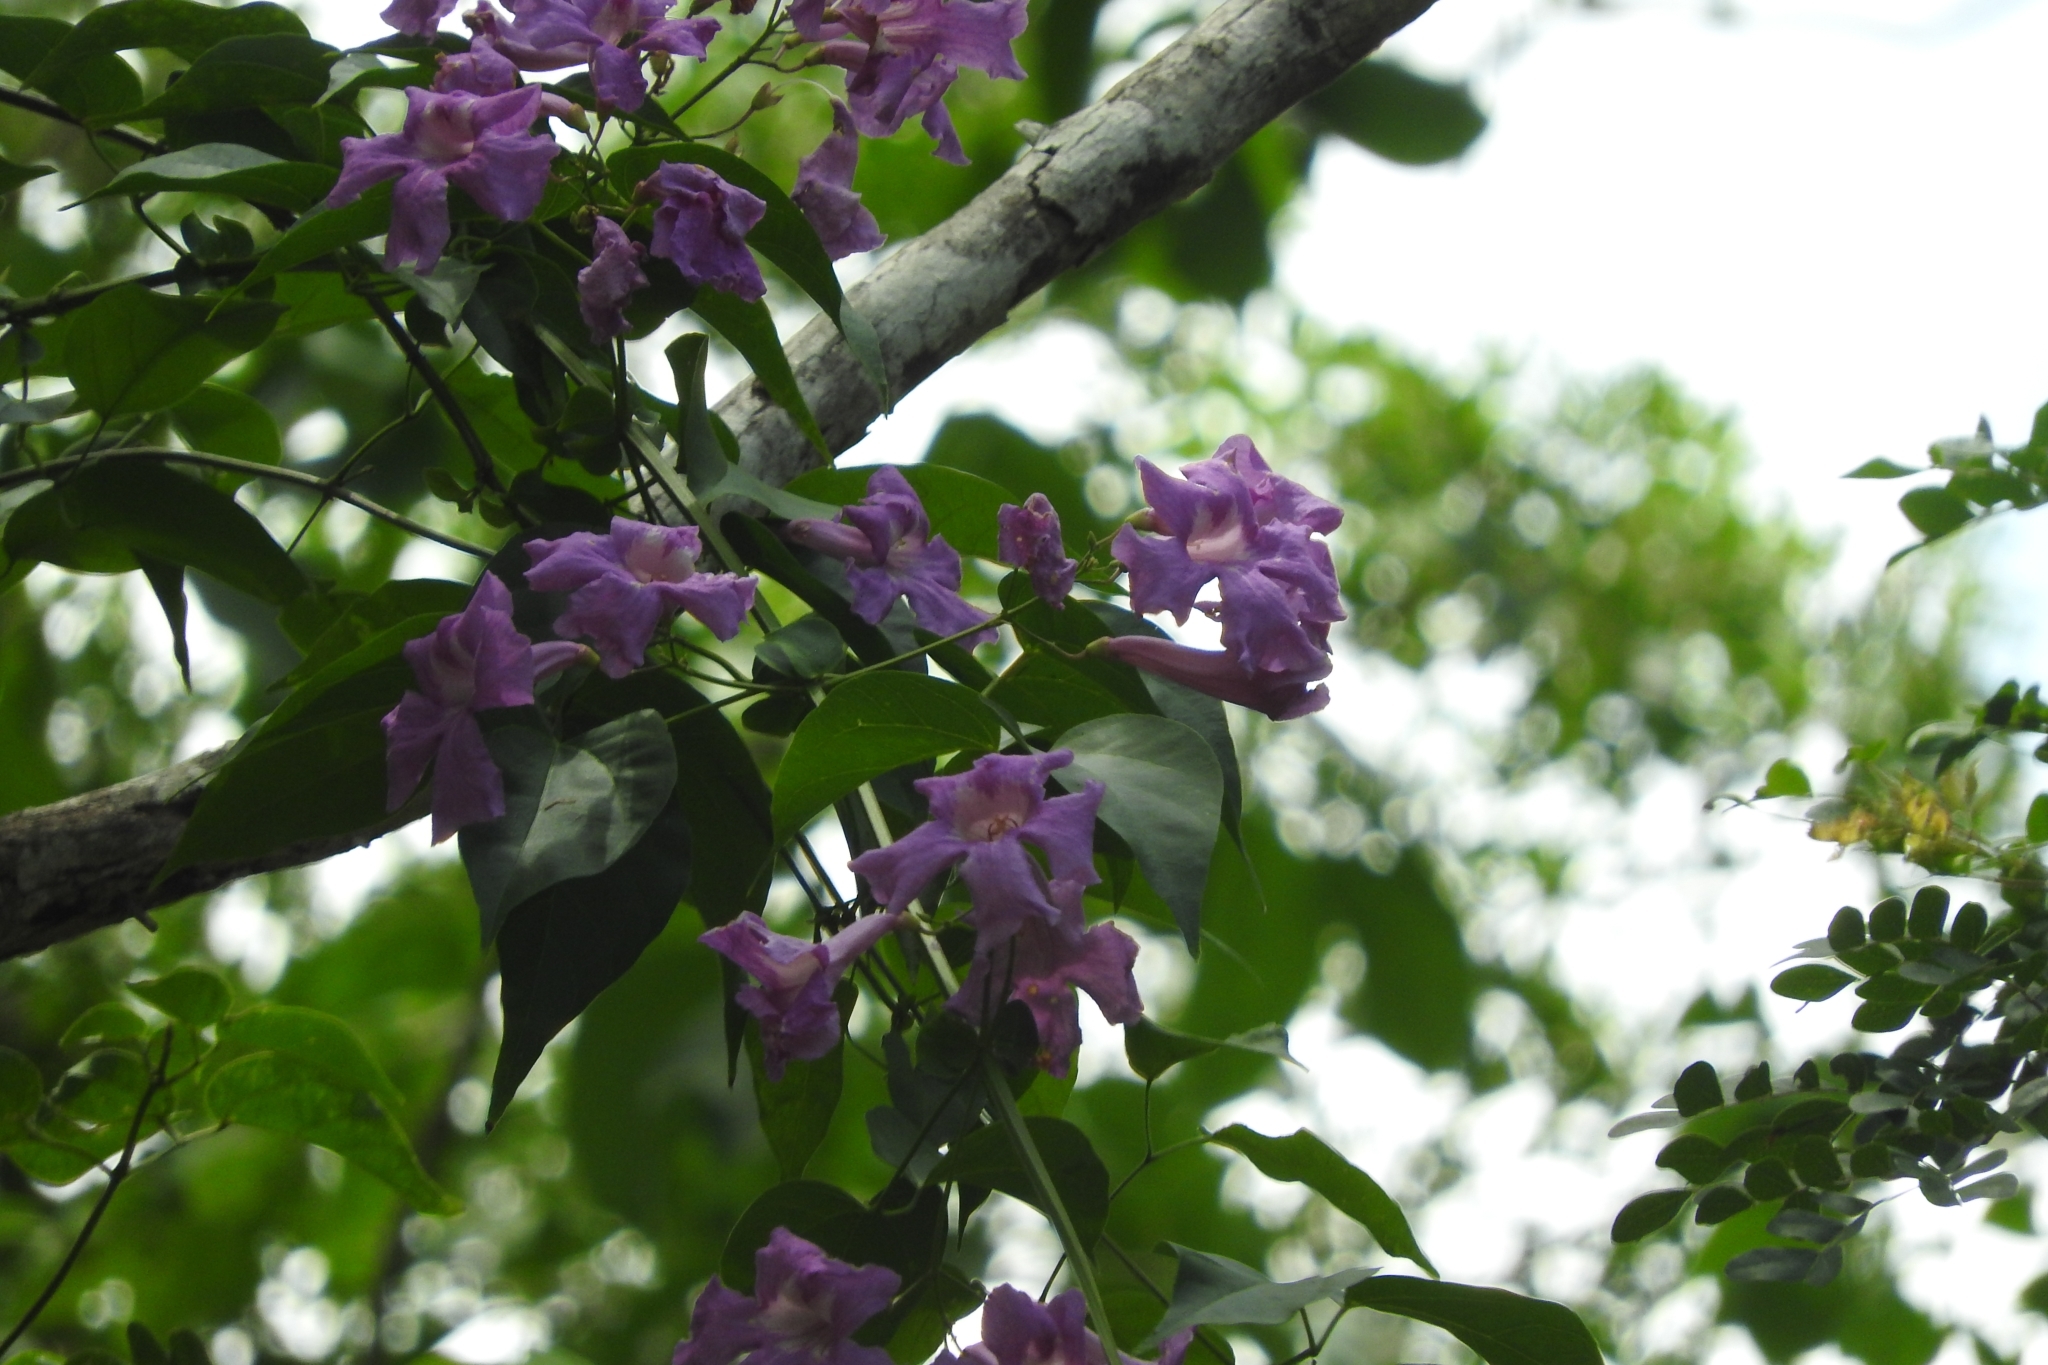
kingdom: Plantae
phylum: Tracheophyta
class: Magnoliopsida
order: Lamiales
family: Bignoniaceae
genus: Bignonia
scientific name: Bignonia neoheterophylla
